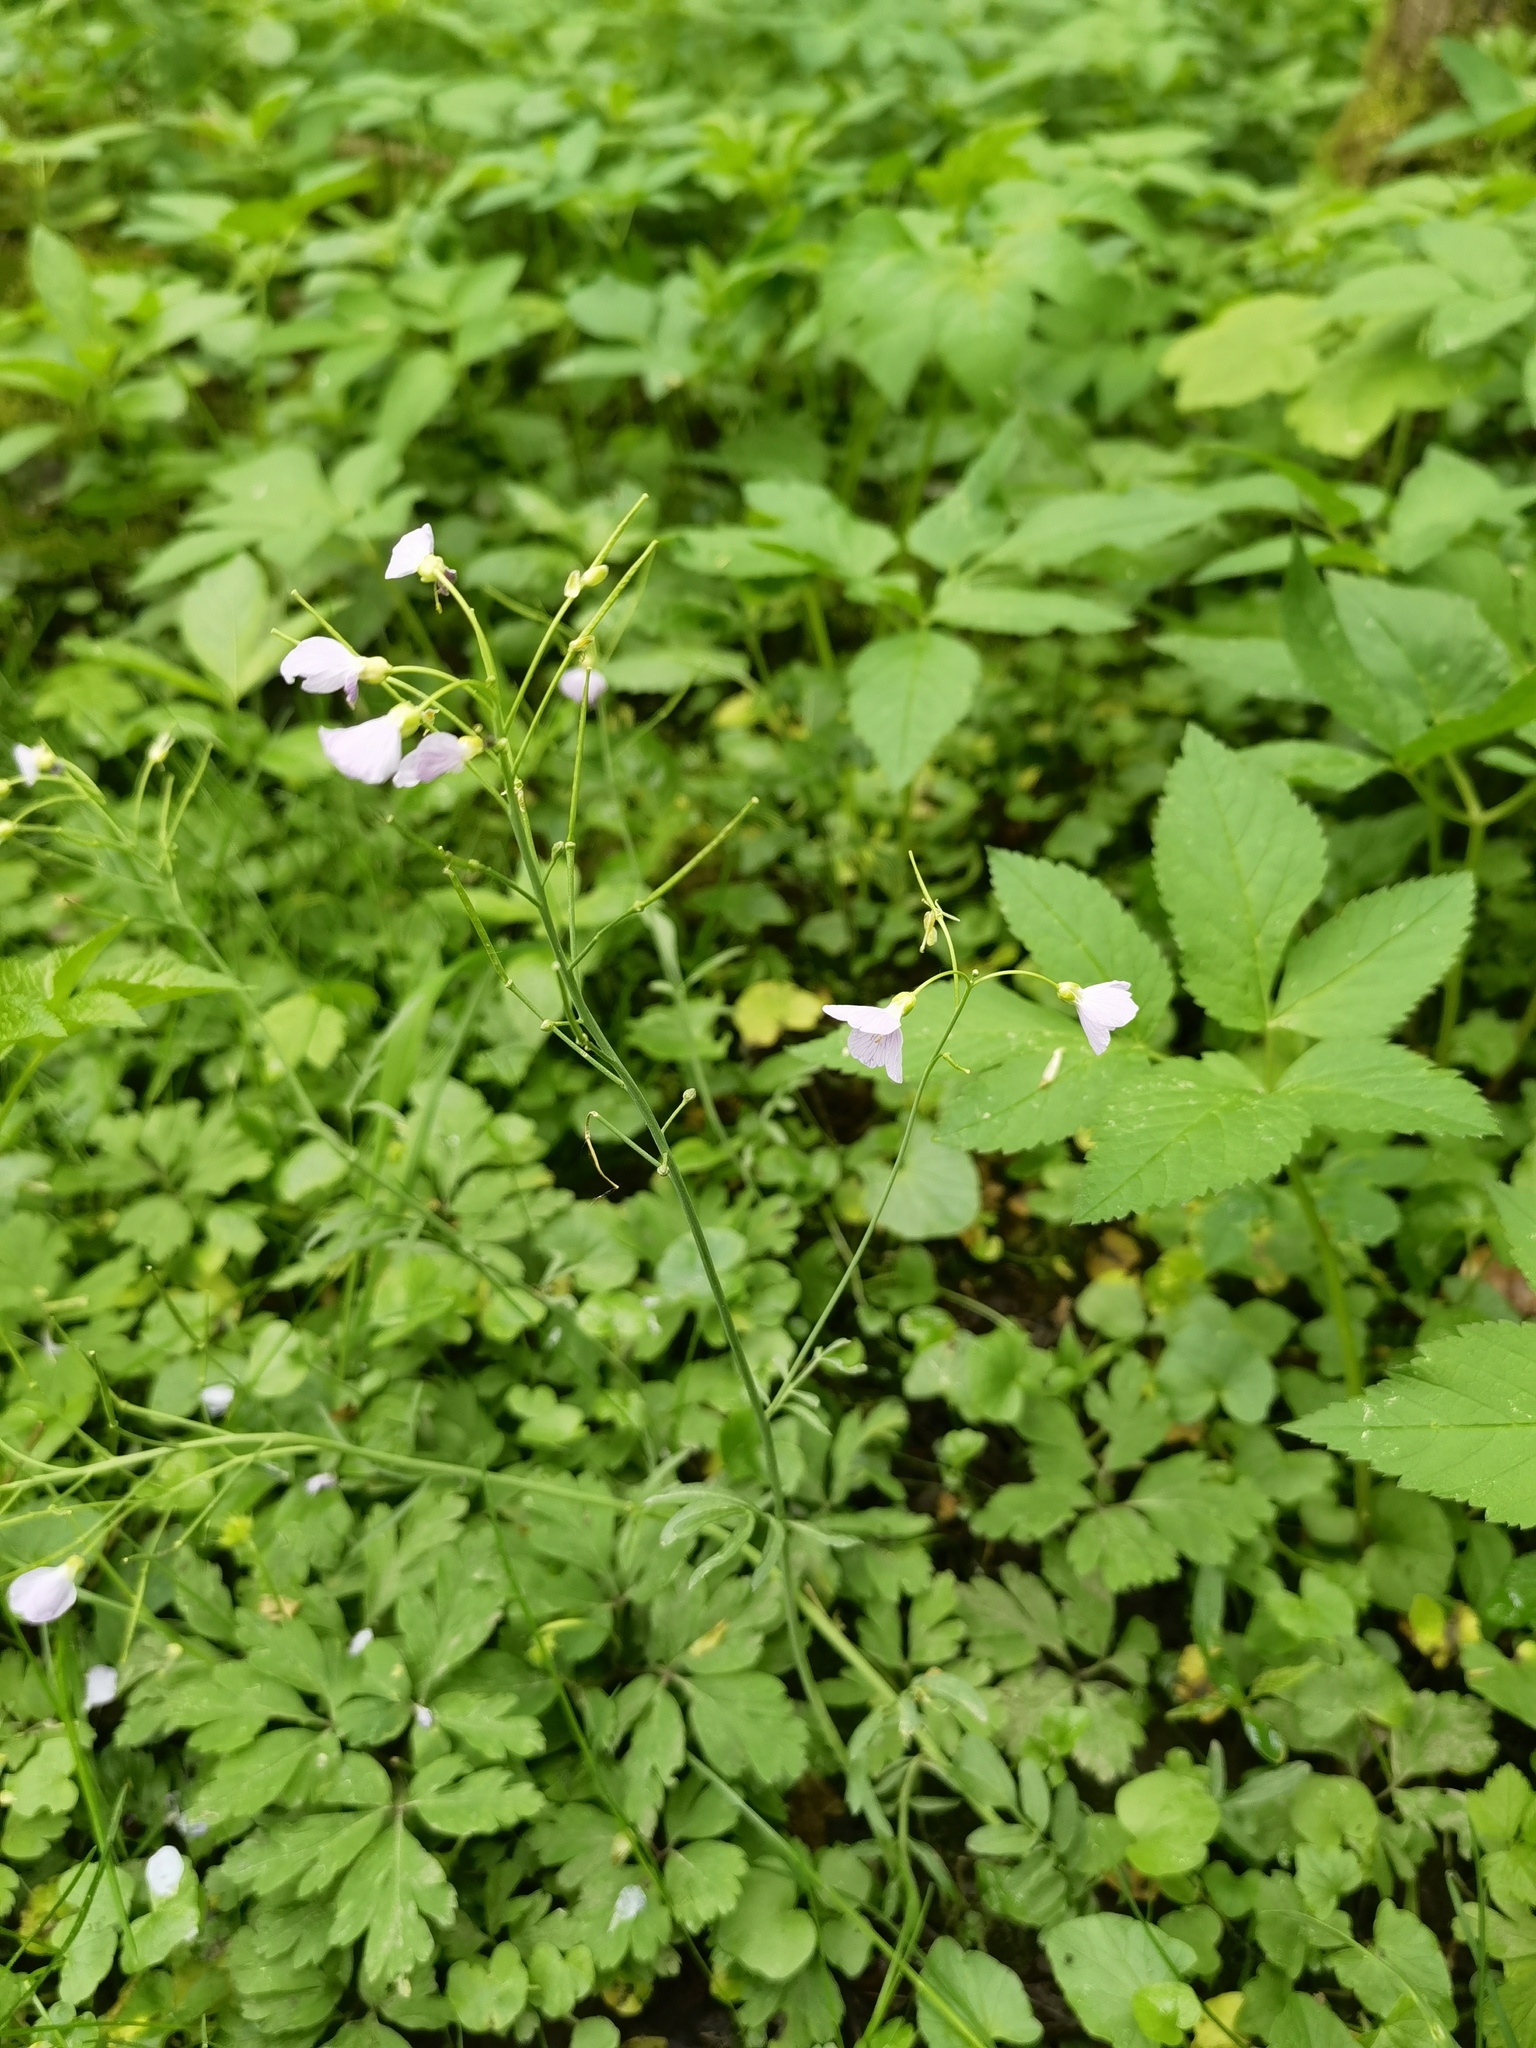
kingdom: Plantae
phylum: Tracheophyta
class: Magnoliopsida
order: Brassicales
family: Brassicaceae
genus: Cardamine
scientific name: Cardamine pratensis
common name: Cuckoo flower
